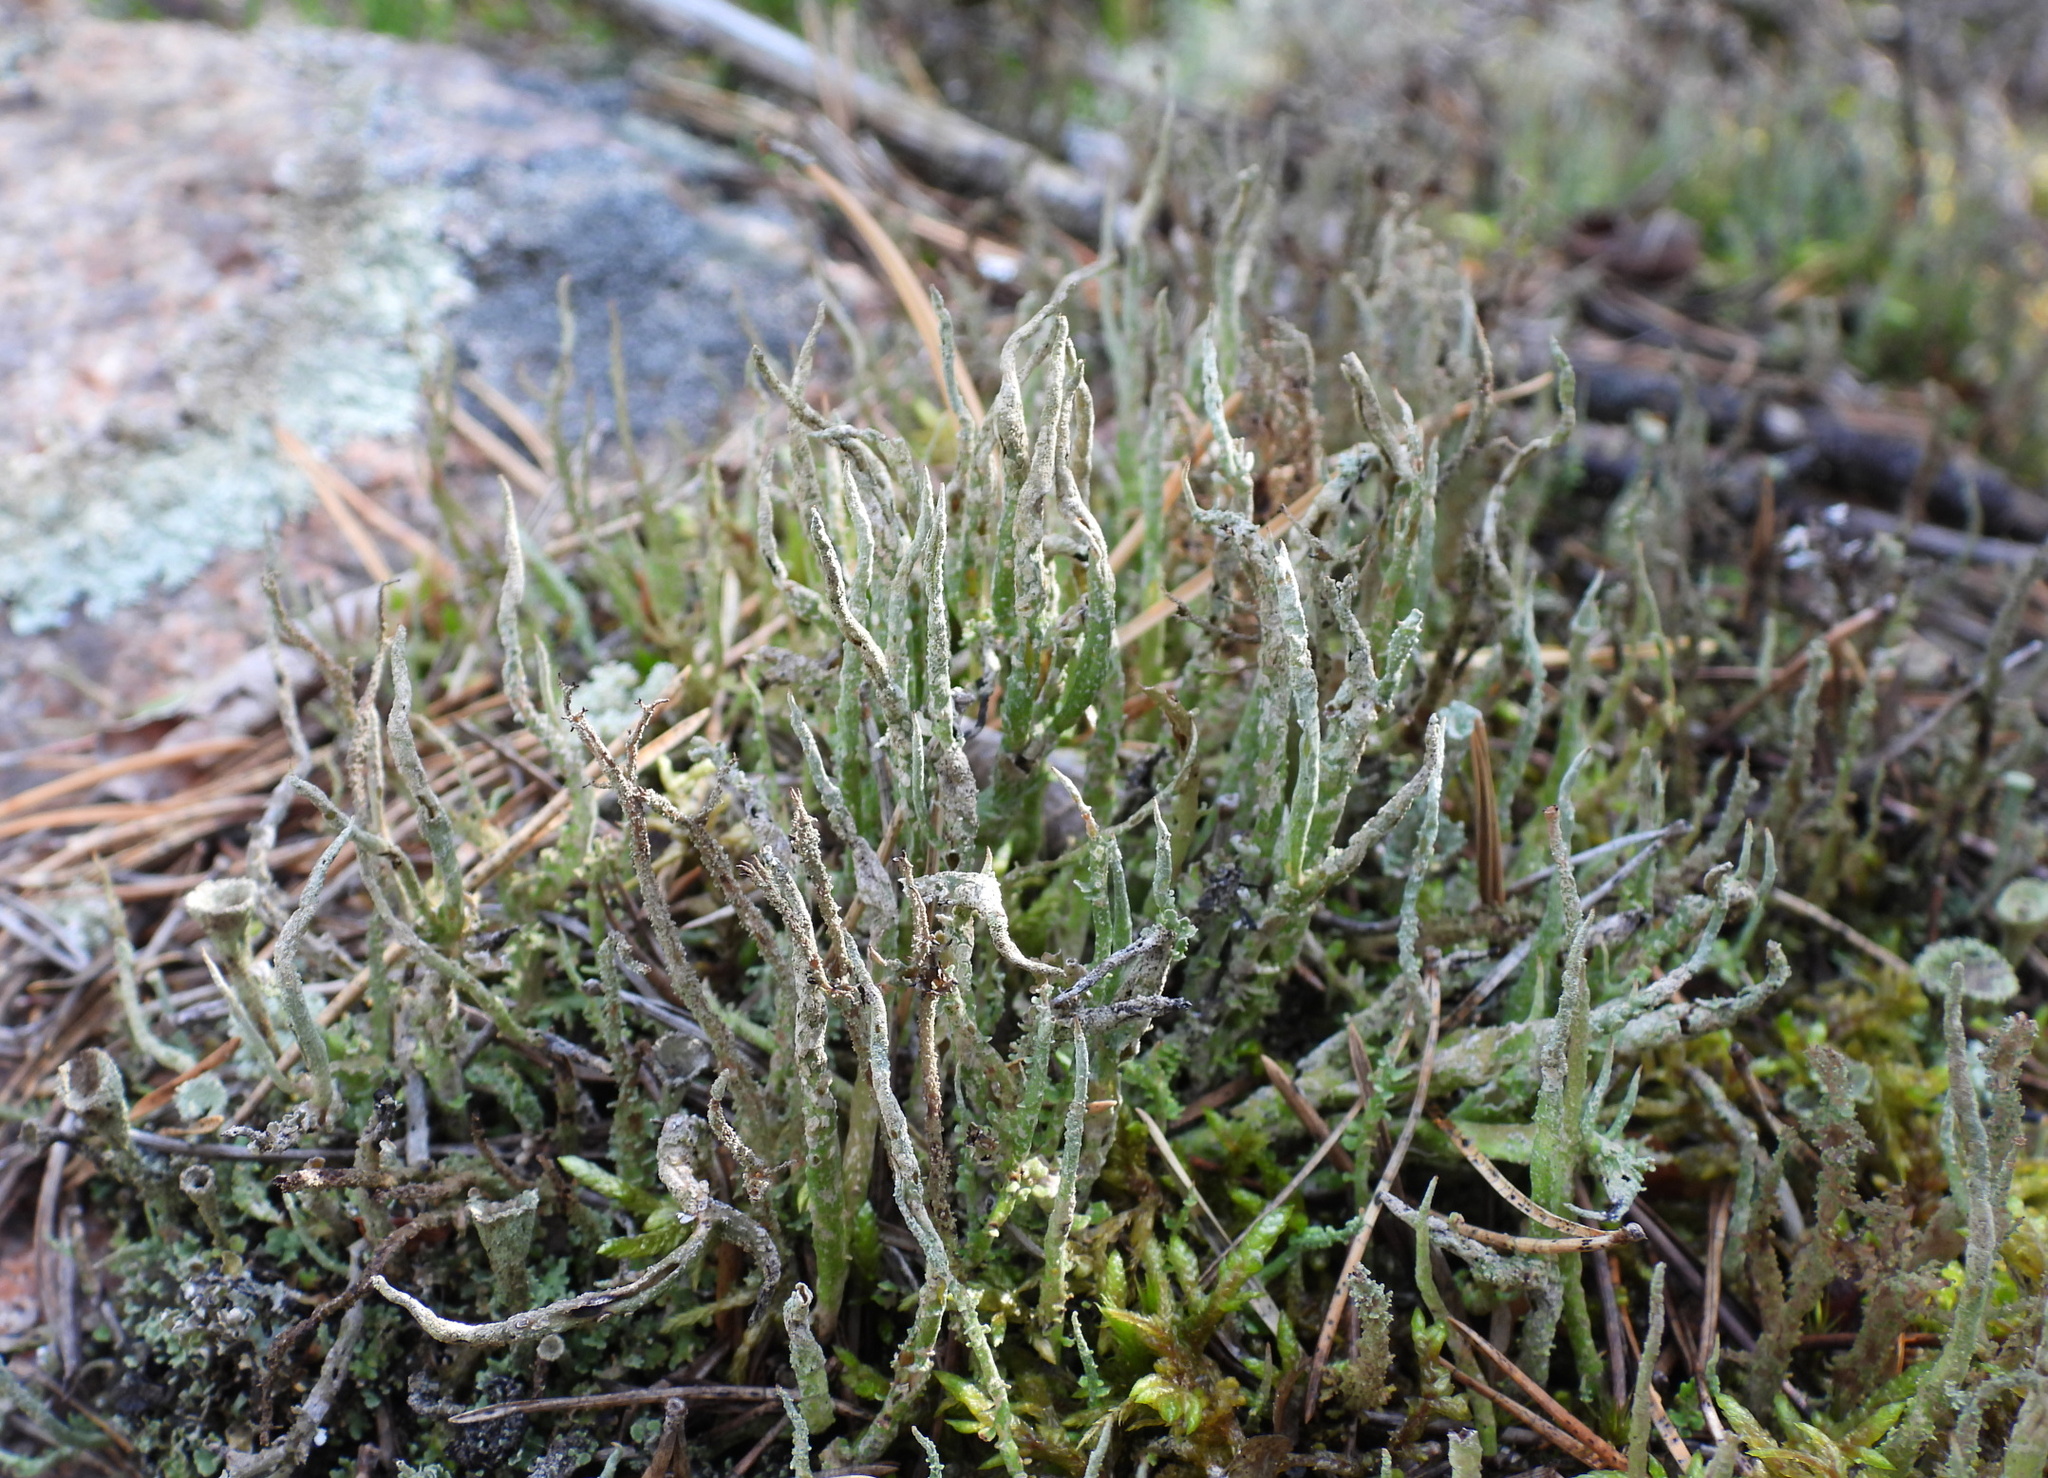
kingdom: Fungi
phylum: Ascomycota
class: Lecanoromycetes
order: Lecanorales
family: Cladoniaceae
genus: Cladonia
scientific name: Cladonia cornuta
